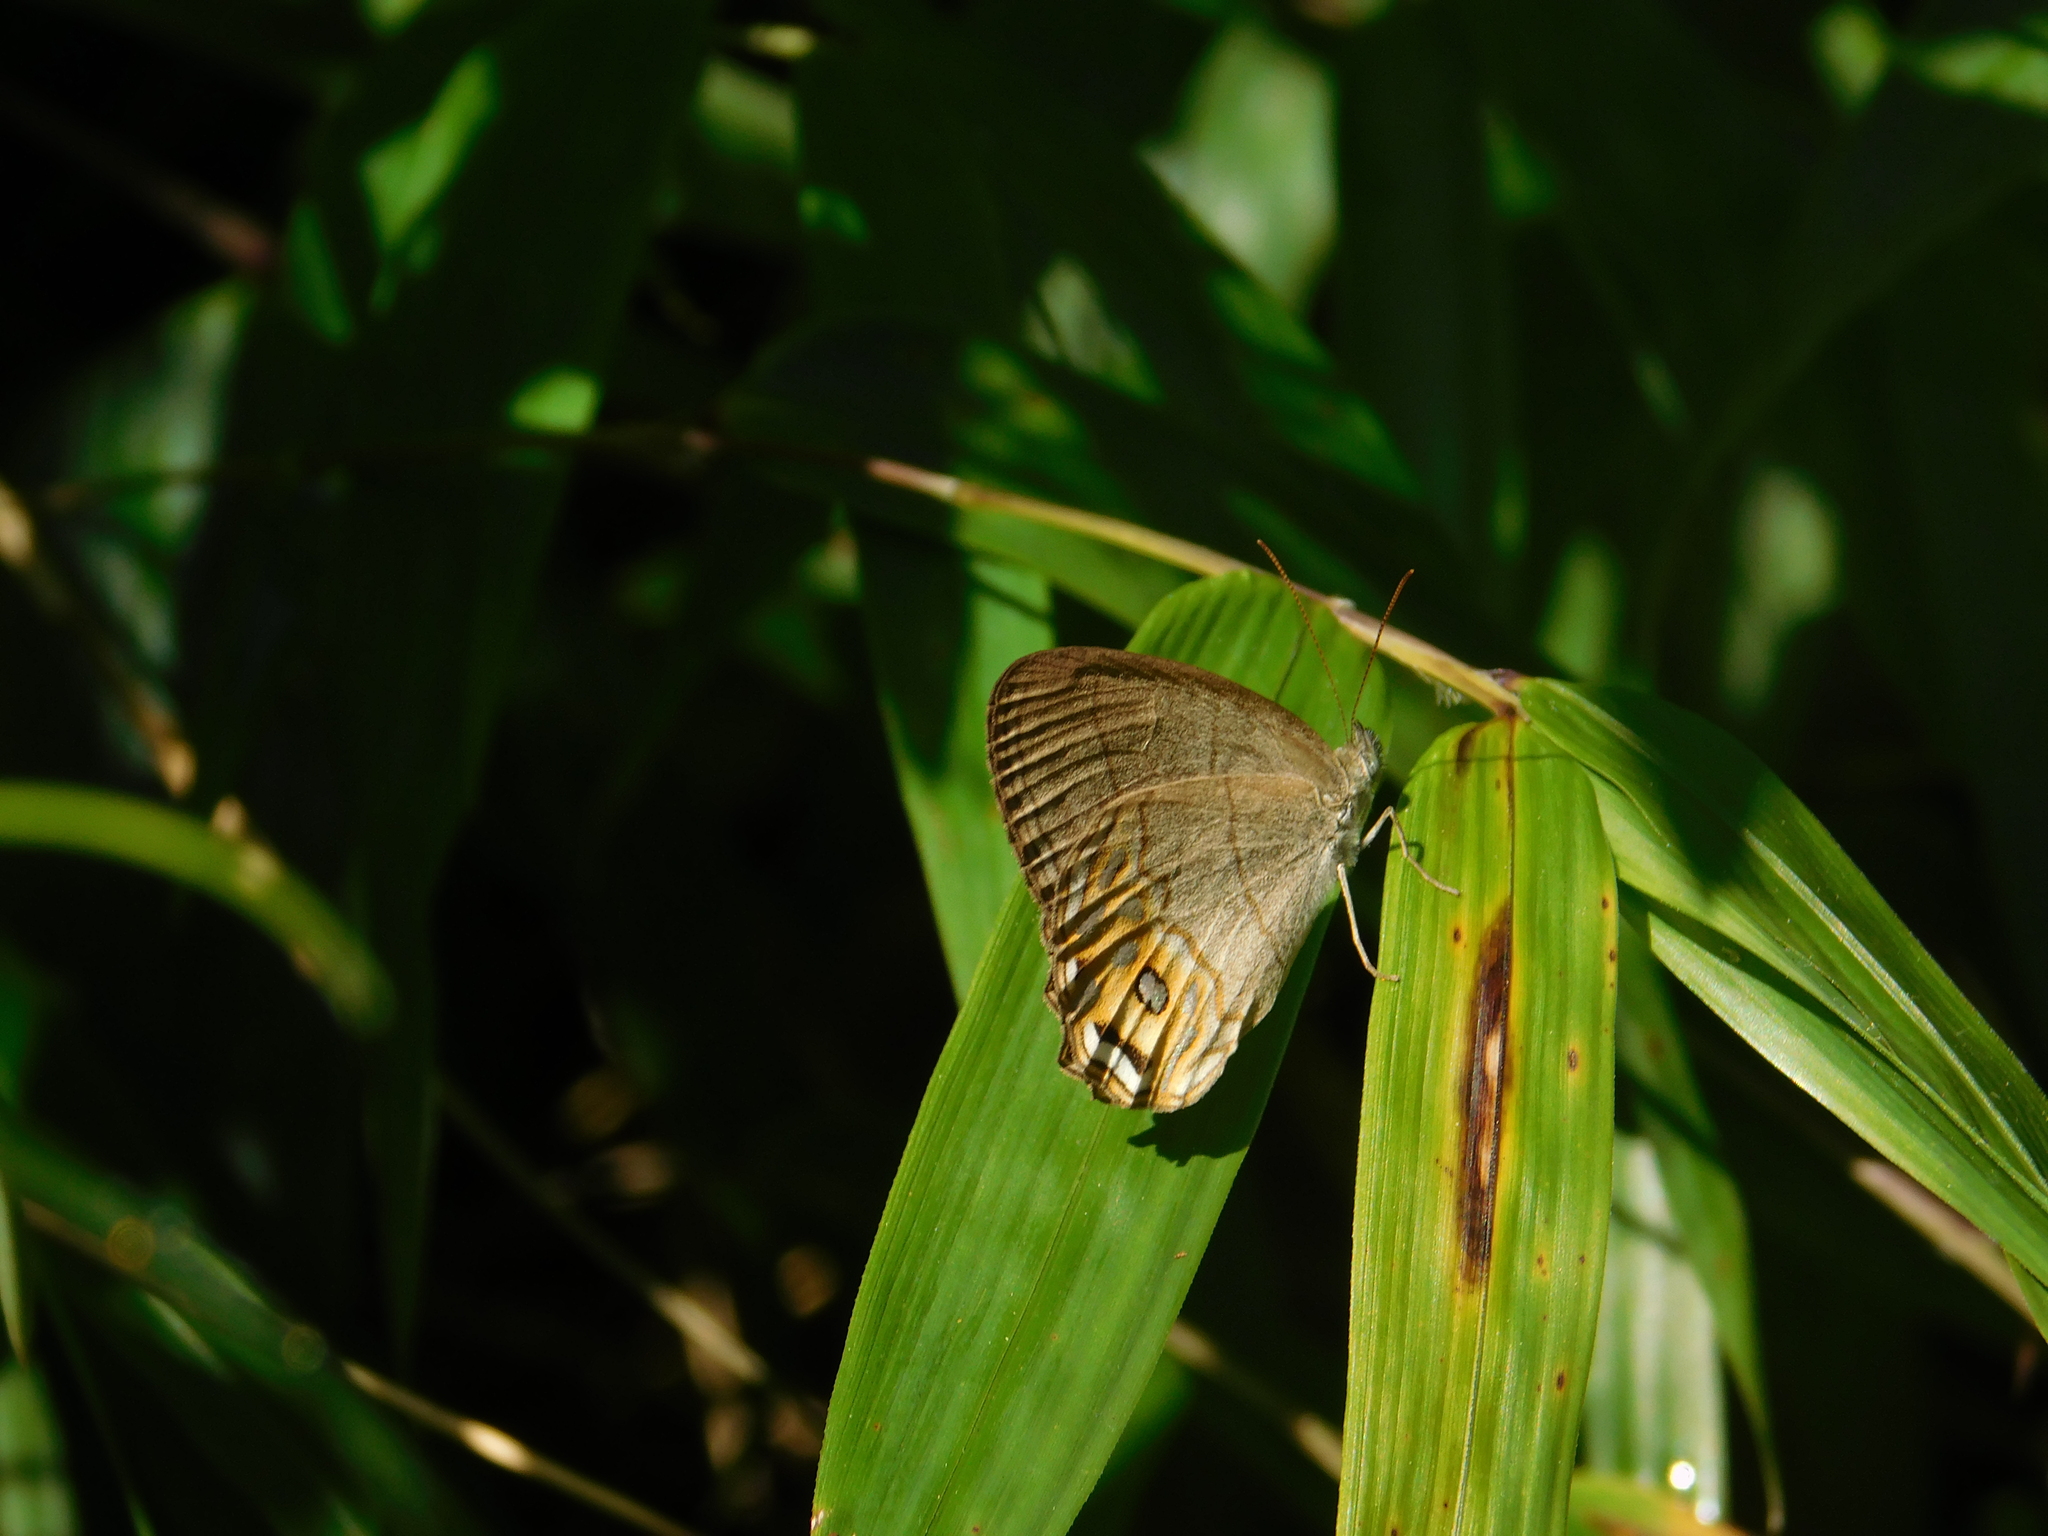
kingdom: Animalia
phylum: Arthropoda
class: Insecta
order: Lepidoptera
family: Nymphalidae
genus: Splendeuptychia
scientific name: Splendeuptychia libitina
